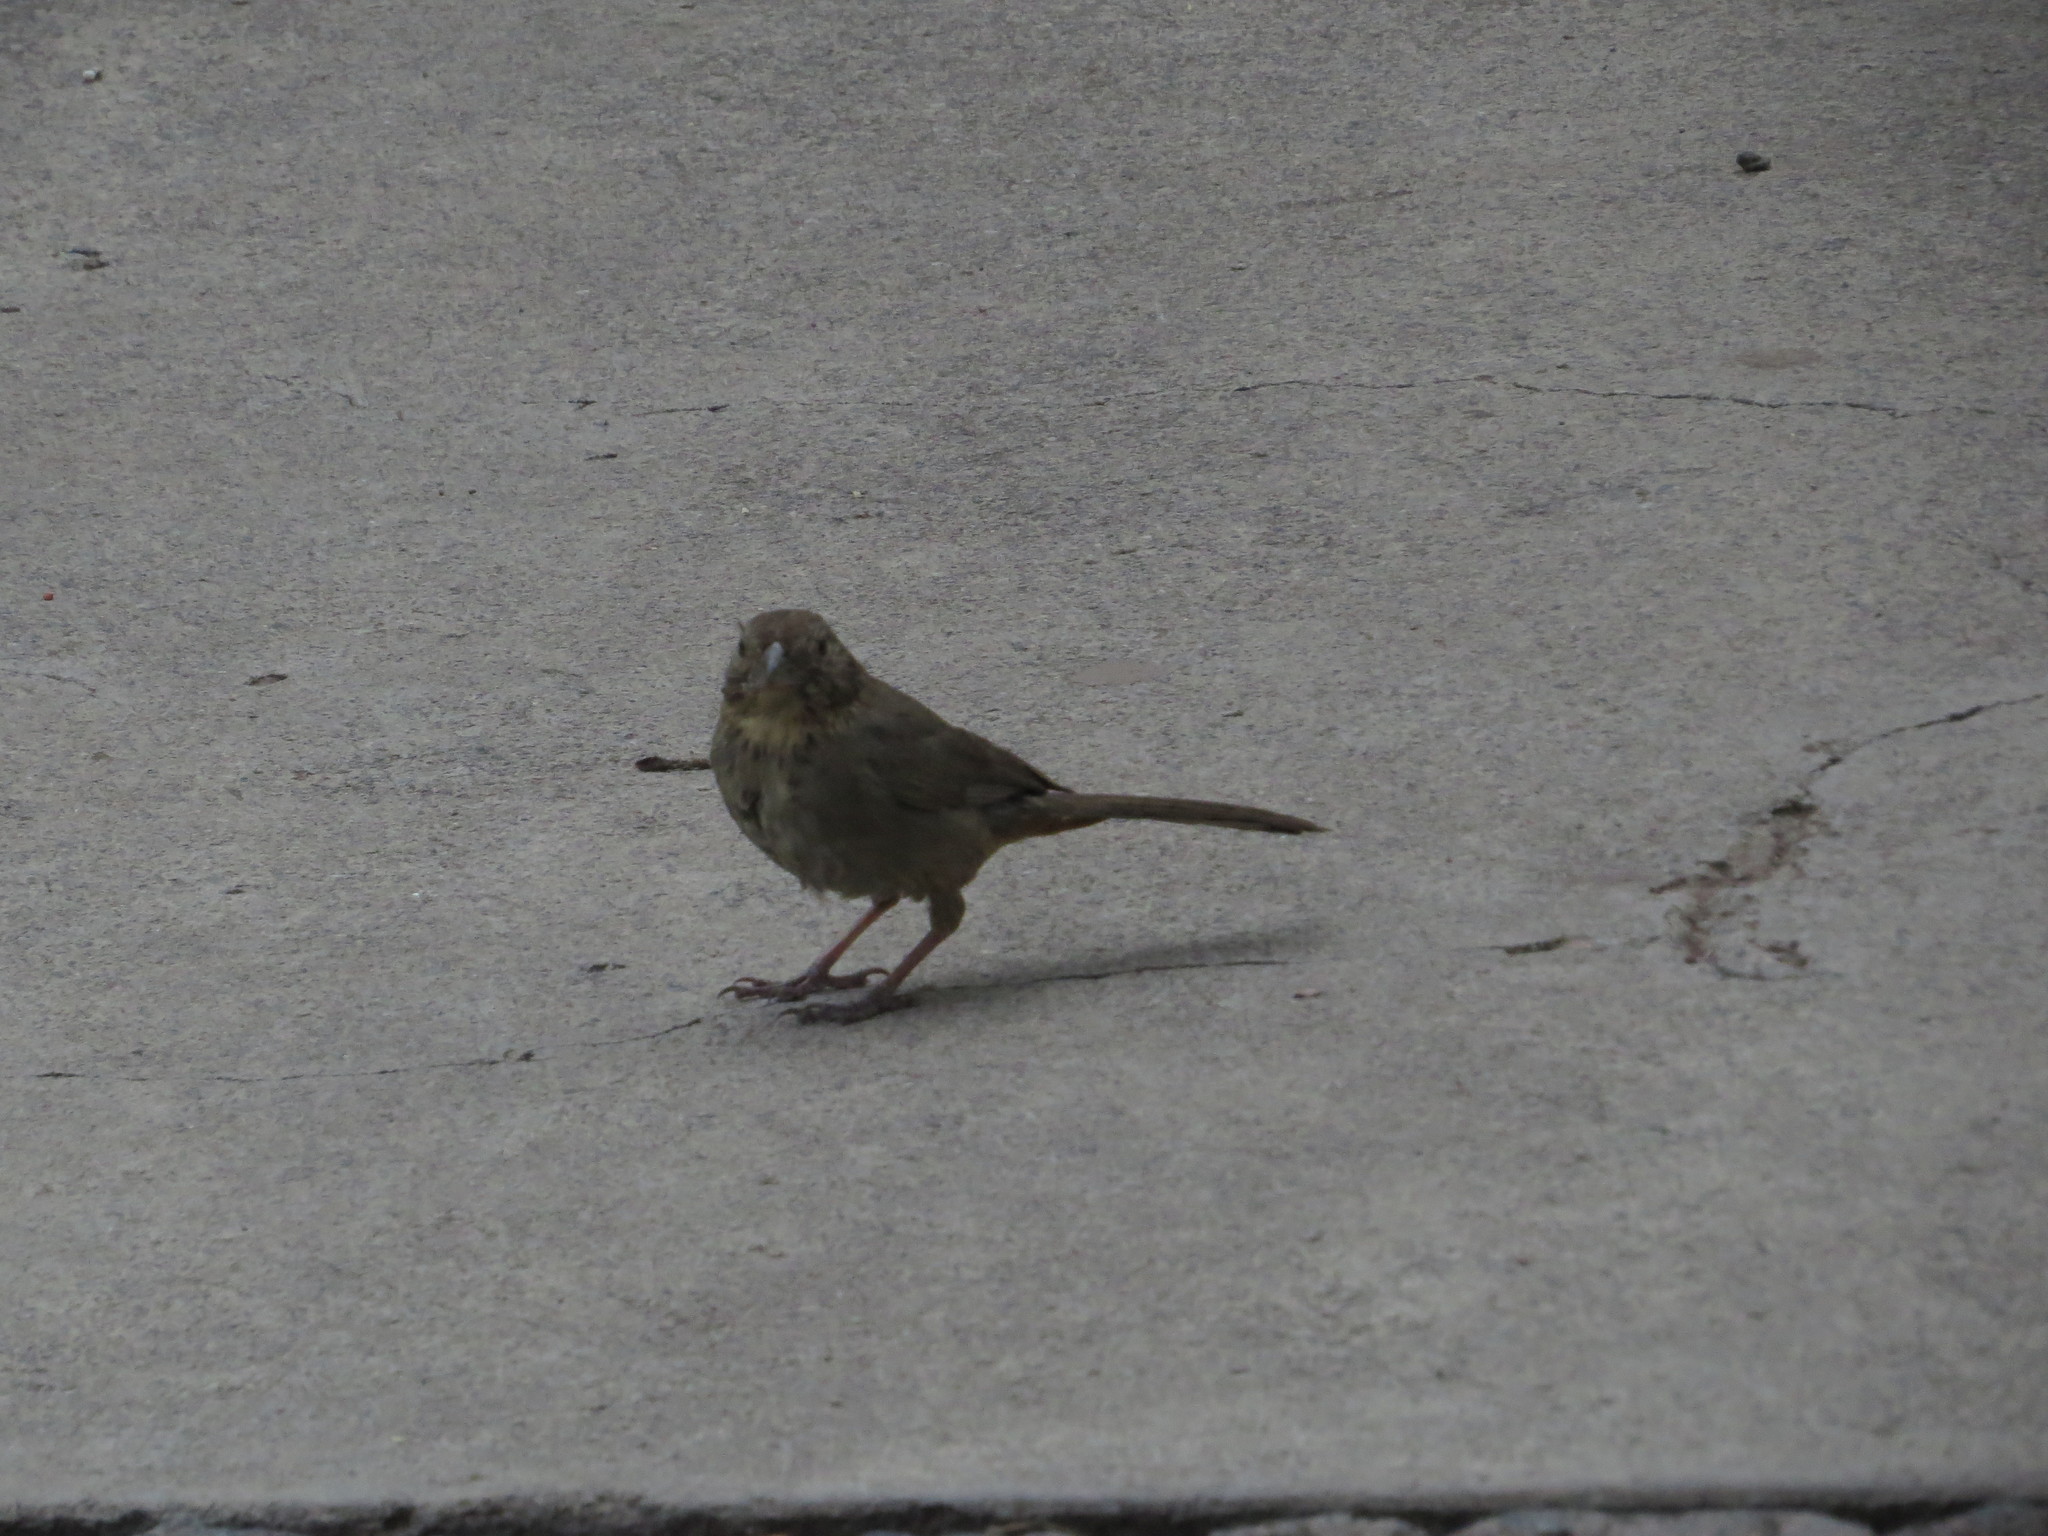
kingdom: Animalia
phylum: Chordata
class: Aves
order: Passeriformes
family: Passerellidae
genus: Melozone
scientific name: Melozone fusca
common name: Canyon towhee
